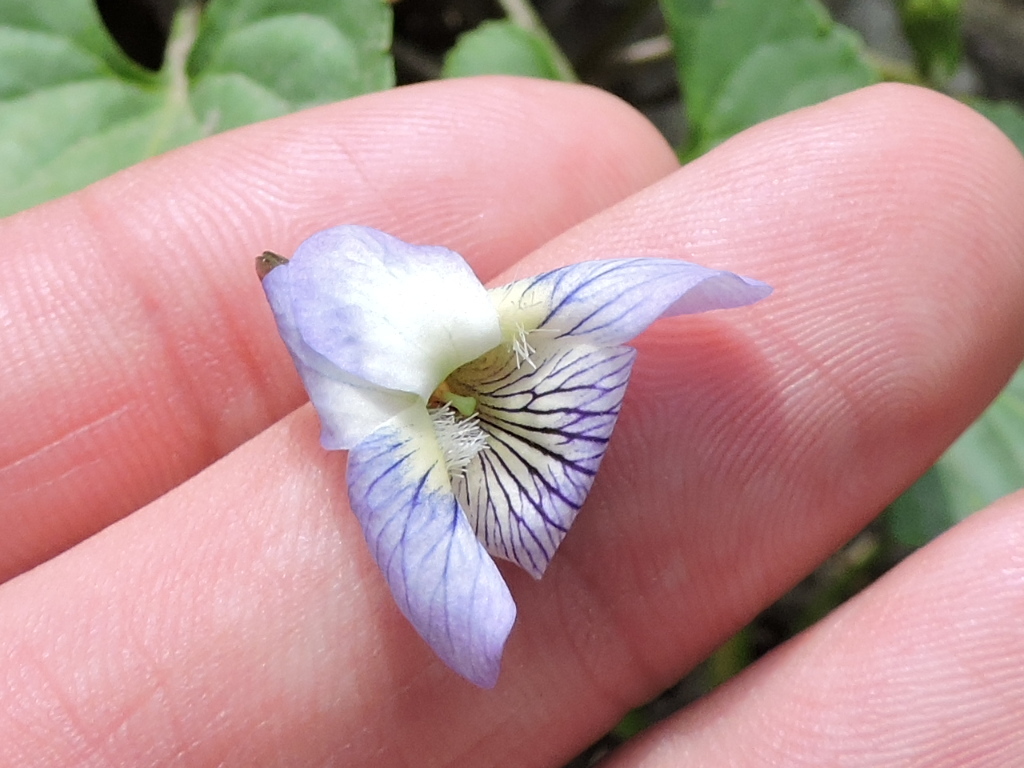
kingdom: Plantae
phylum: Tracheophyta
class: Magnoliopsida
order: Malpighiales
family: Violaceae
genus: Viola
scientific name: Viola sororia
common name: Dooryard violet
